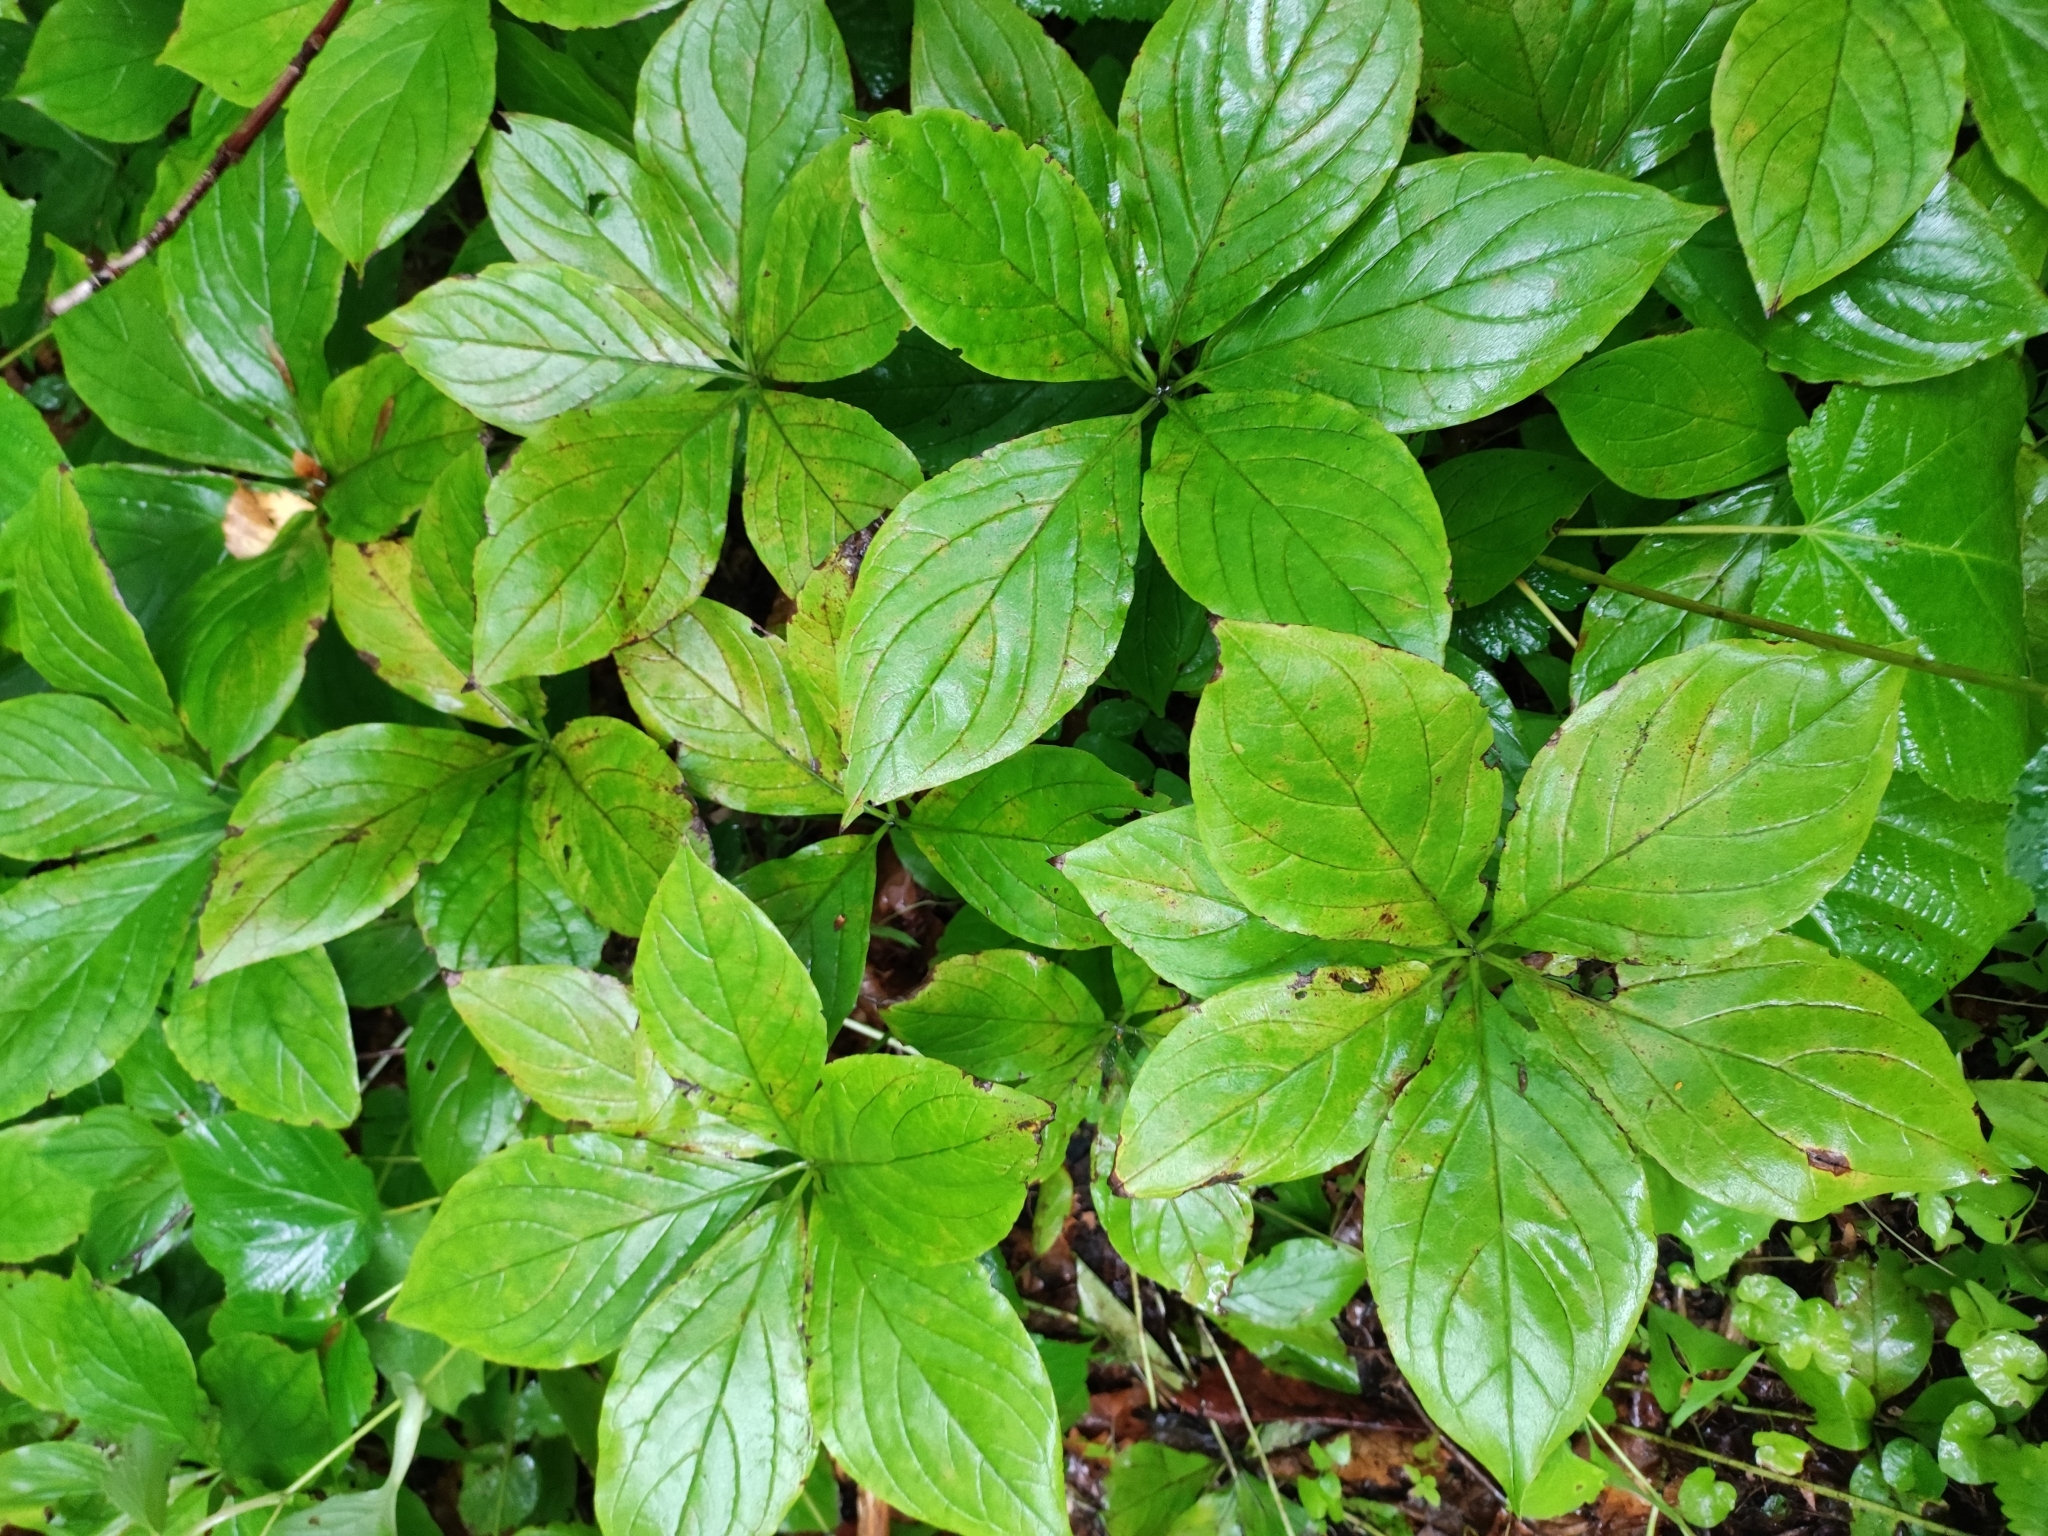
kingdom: Plantae
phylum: Tracheophyta
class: Magnoliopsida
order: Boraginales
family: Boraginaceae
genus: Brachybotrys
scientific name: Brachybotrys paridiformis
